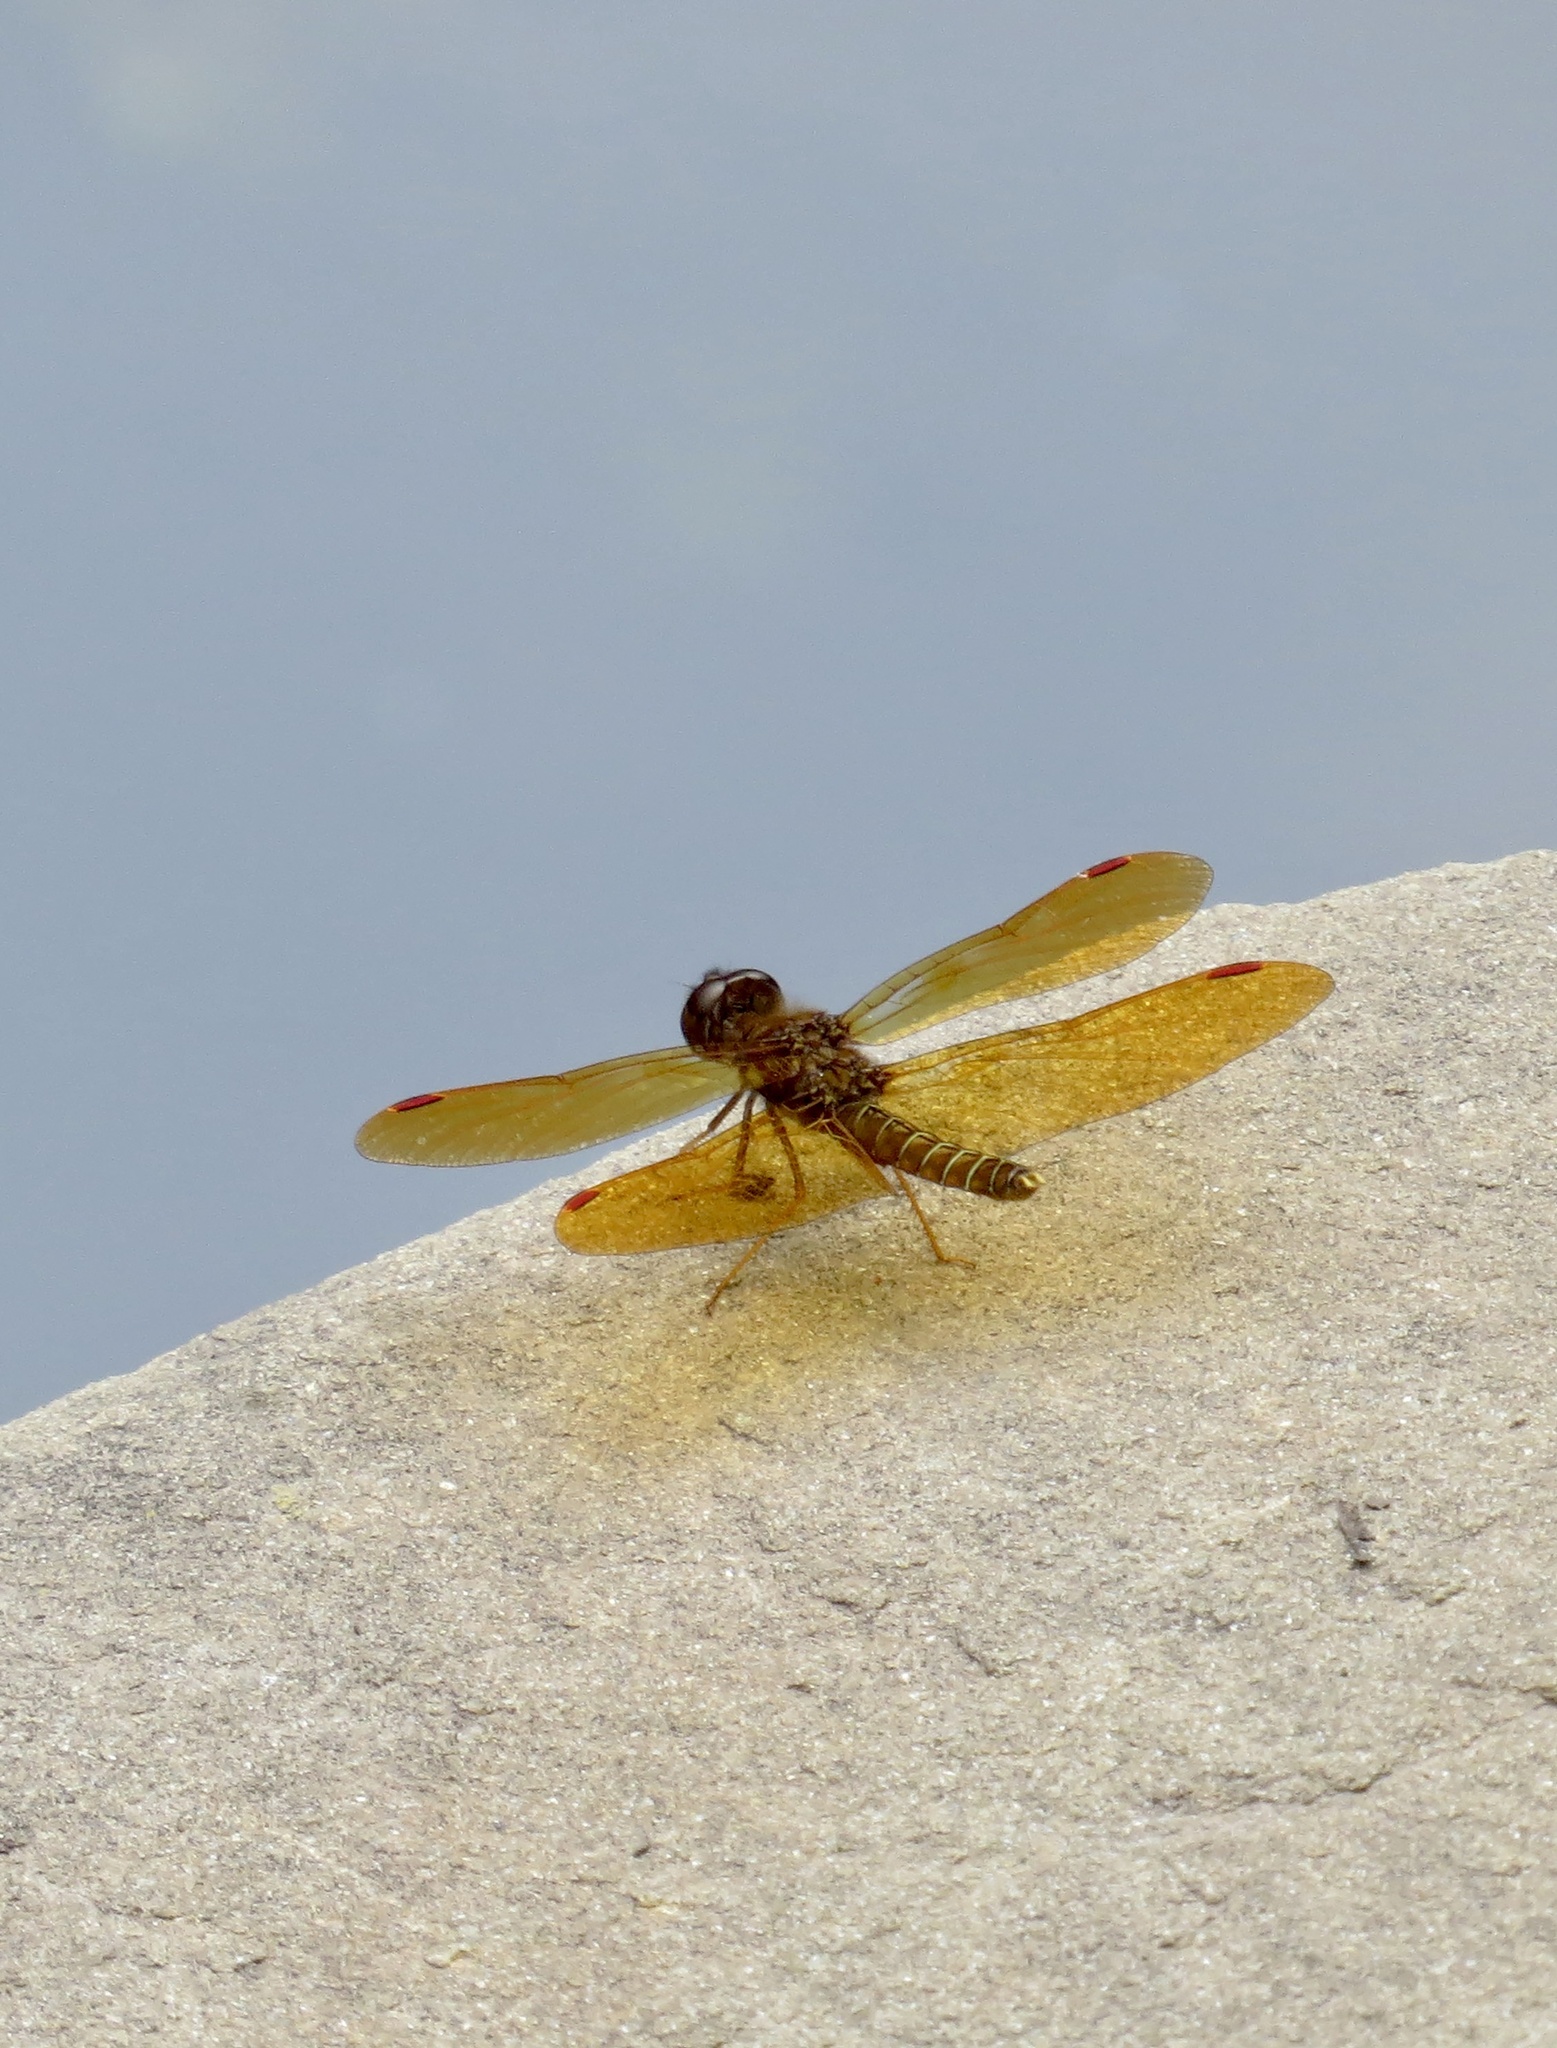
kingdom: Animalia
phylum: Arthropoda
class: Insecta
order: Odonata
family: Libellulidae
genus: Perithemis
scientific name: Perithemis tenera
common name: Eastern amberwing
